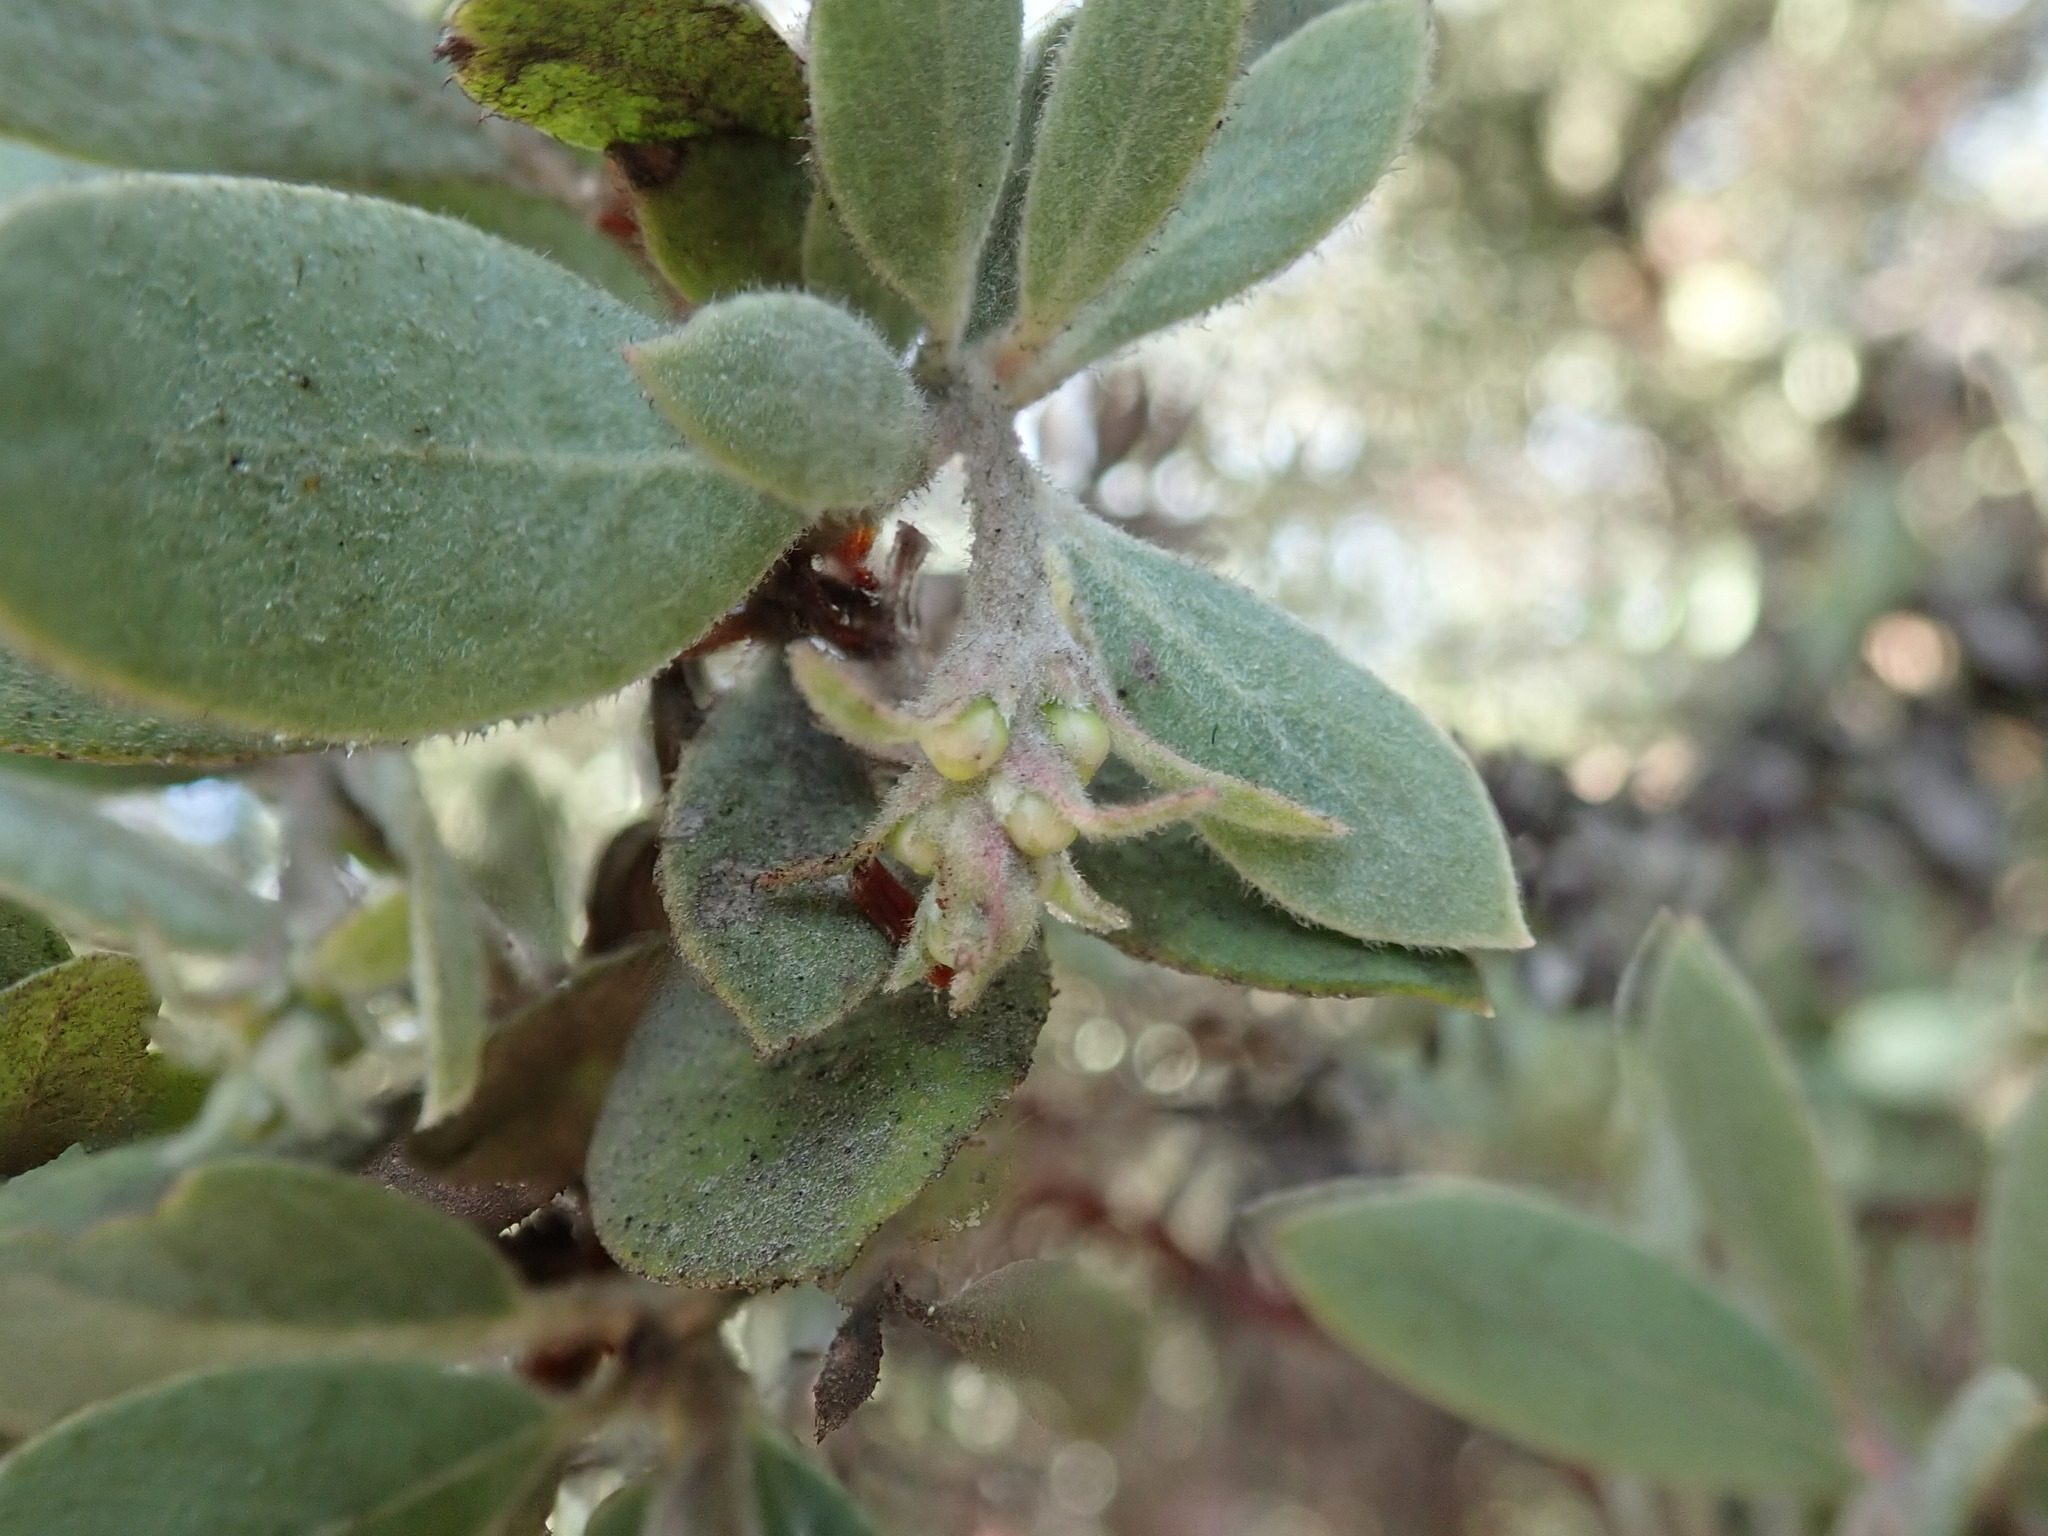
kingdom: Plantae
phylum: Tracheophyta
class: Magnoliopsida
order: Ericales
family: Ericaceae
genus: Arctostaphylos
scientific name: Arctostaphylos silvicola
